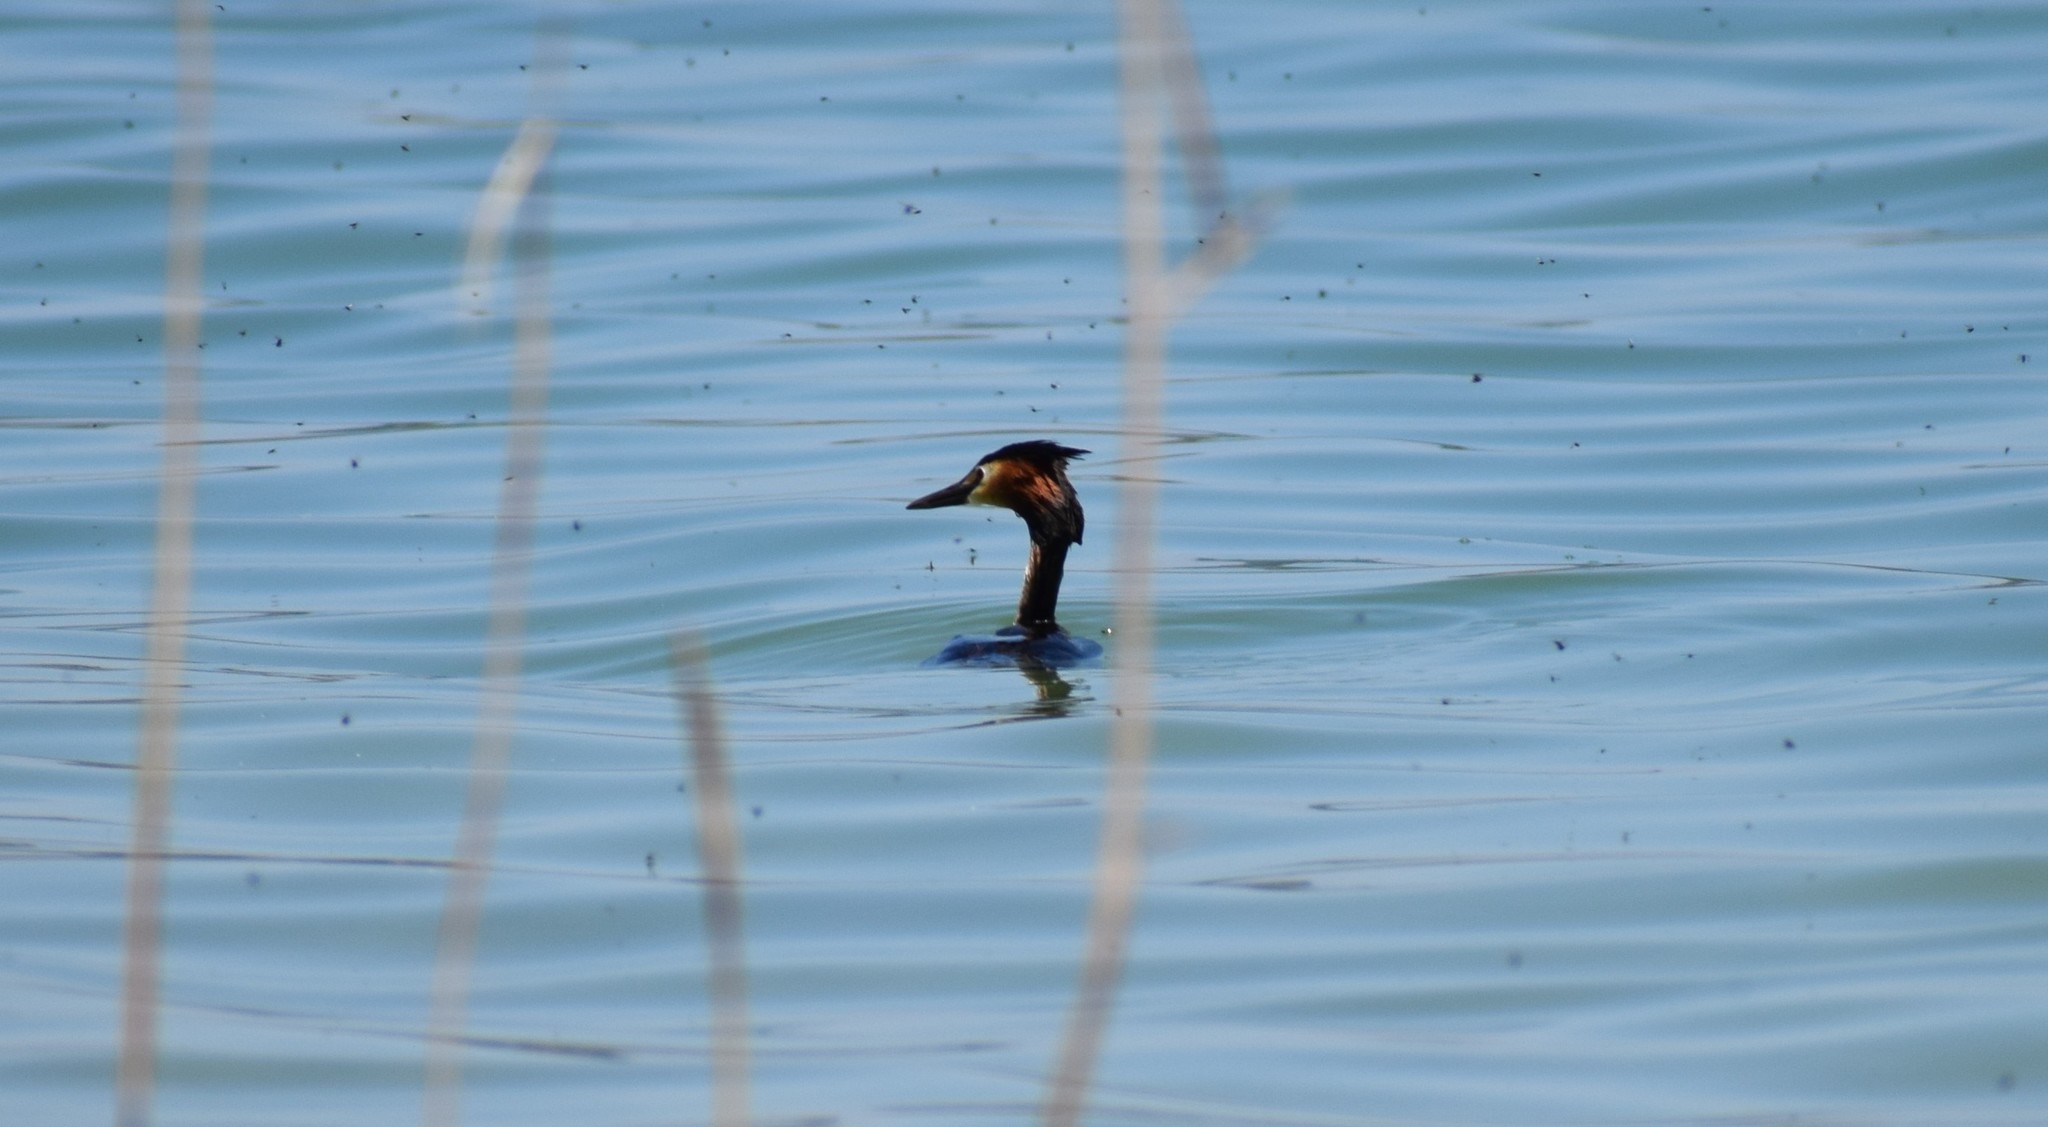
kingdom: Animalia
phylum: Chordata
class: Aves
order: Podicipediformes
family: Podicipedidae
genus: Podiceps
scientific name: Podiceps cristatus
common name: Great crested grebe
